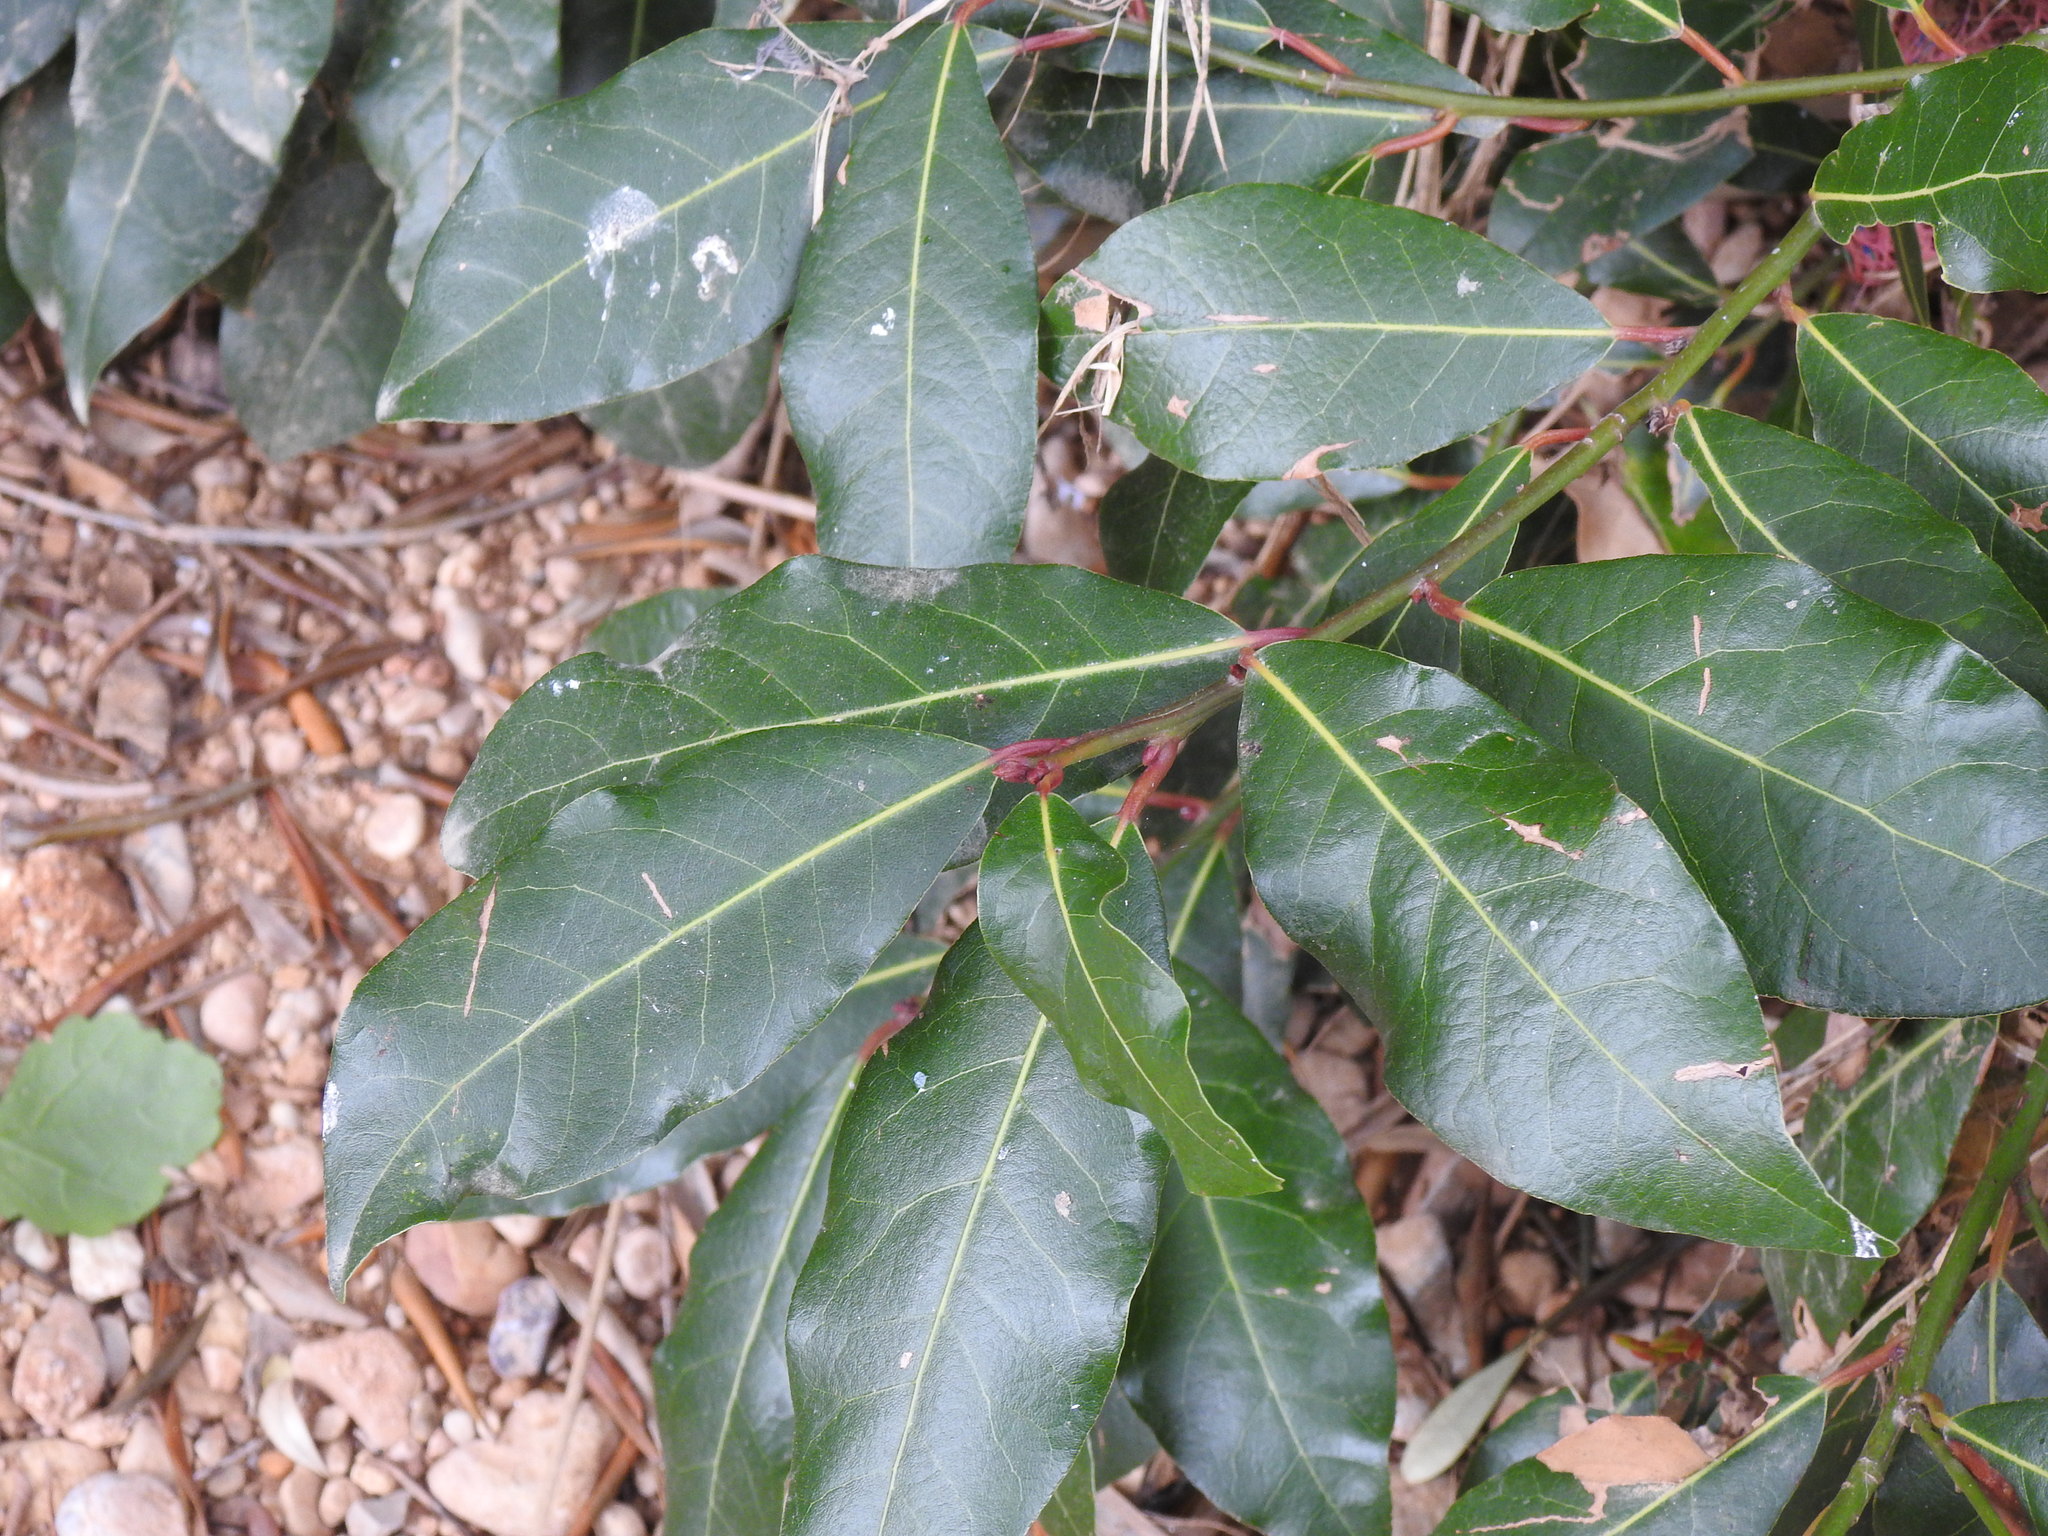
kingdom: Plantae
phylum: Tracheophyta
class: Magnoliopsida
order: Laurales
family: Lauraceae
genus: Laurus
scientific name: Laurus nobilis
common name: Bay
